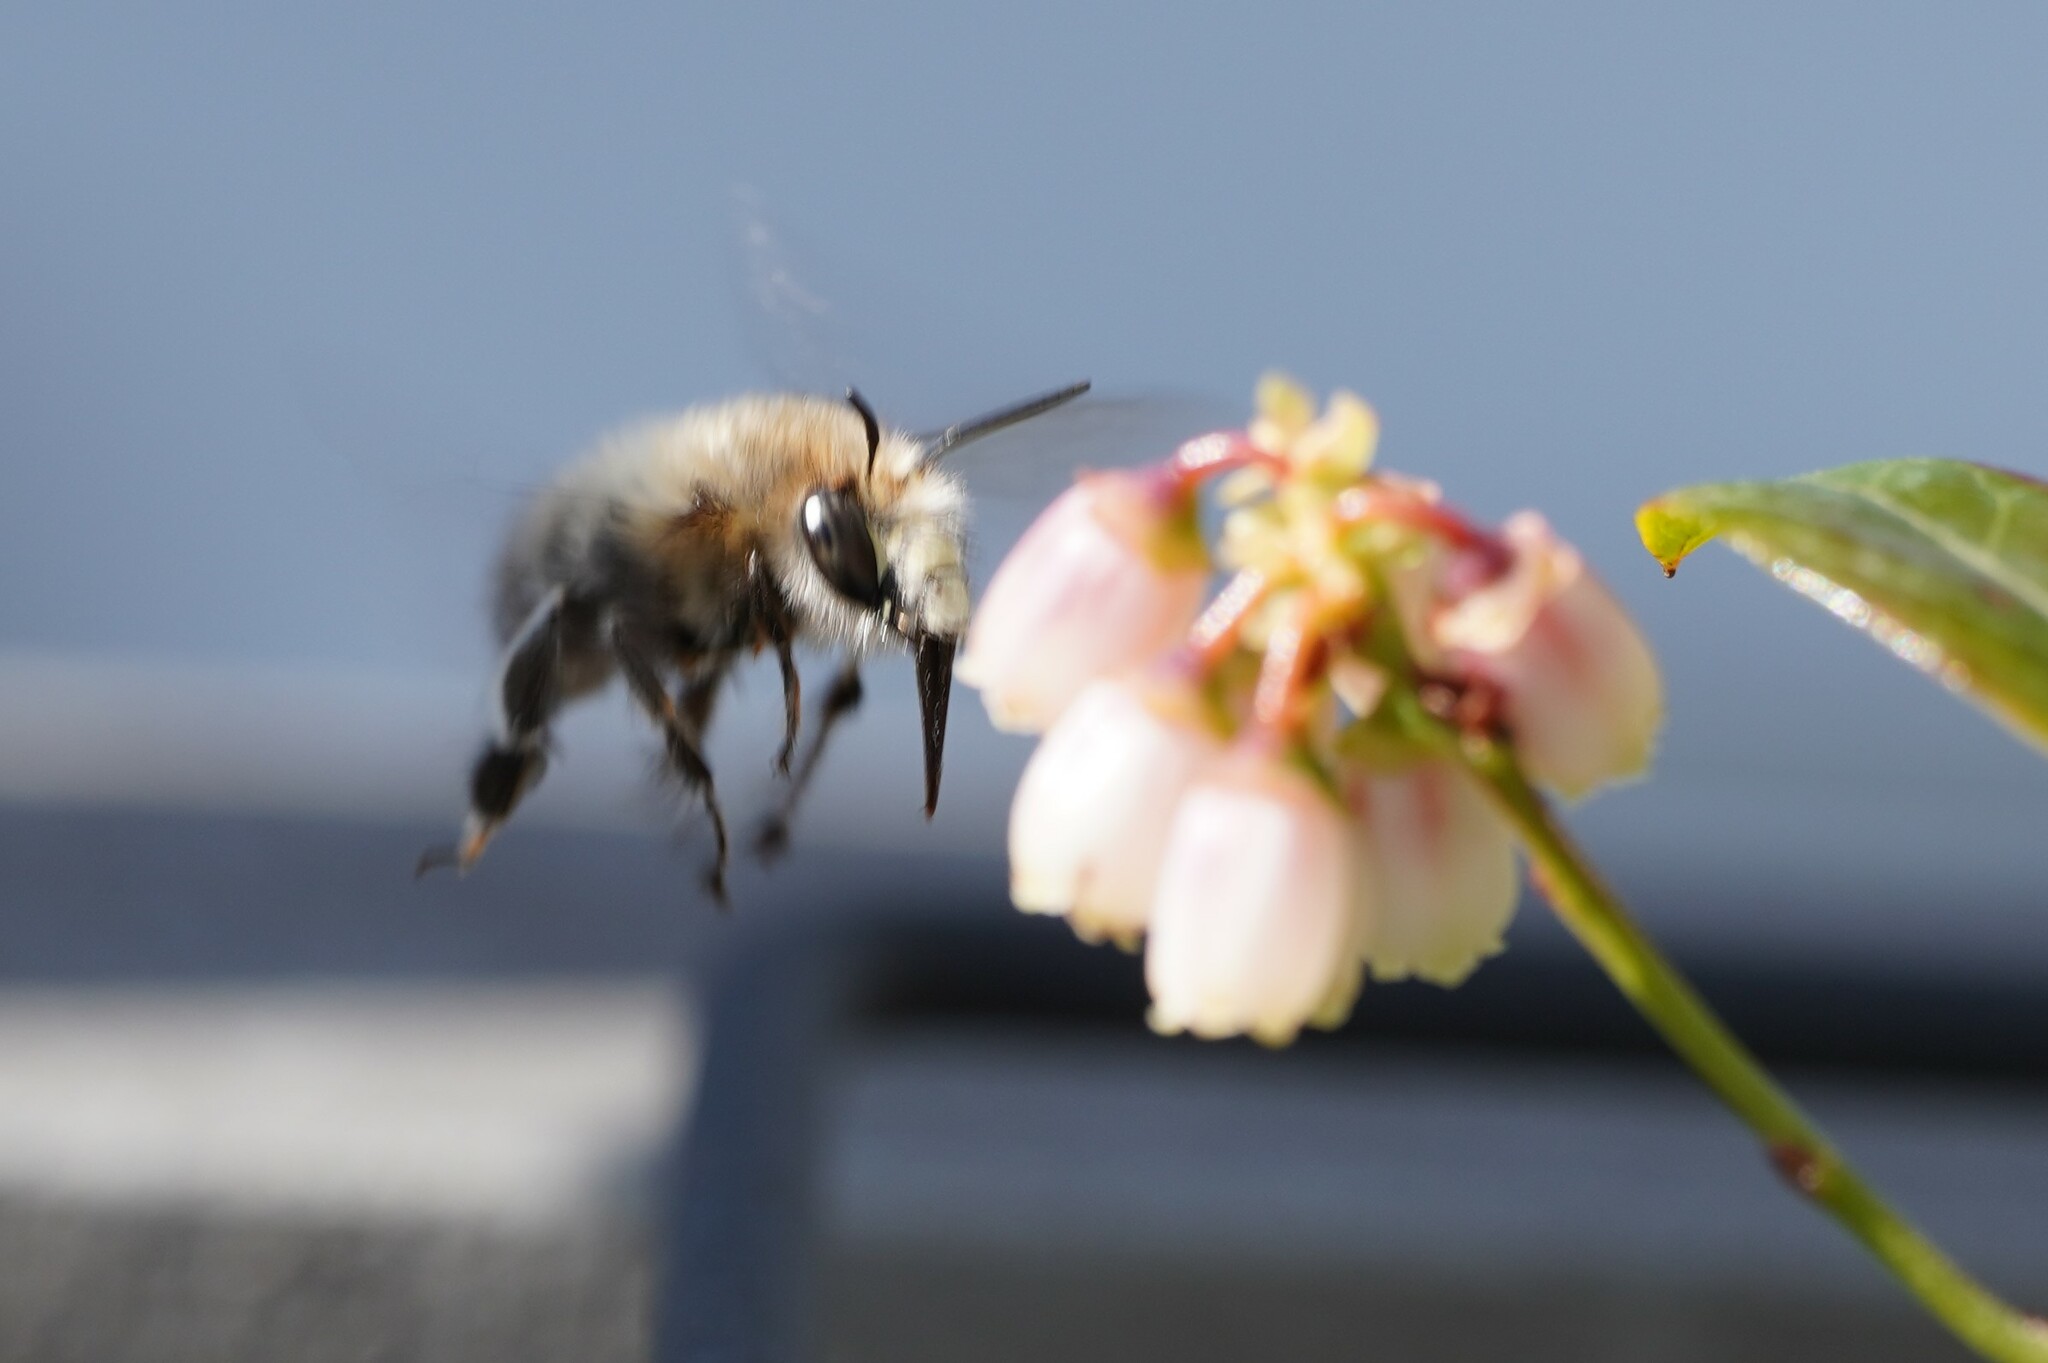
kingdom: Animalia
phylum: Arthropoda
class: Insecta
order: Hymenoptera
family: Apidae
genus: Anthophora
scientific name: Anthophora plumipes
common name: Hairy-footed flower bee
